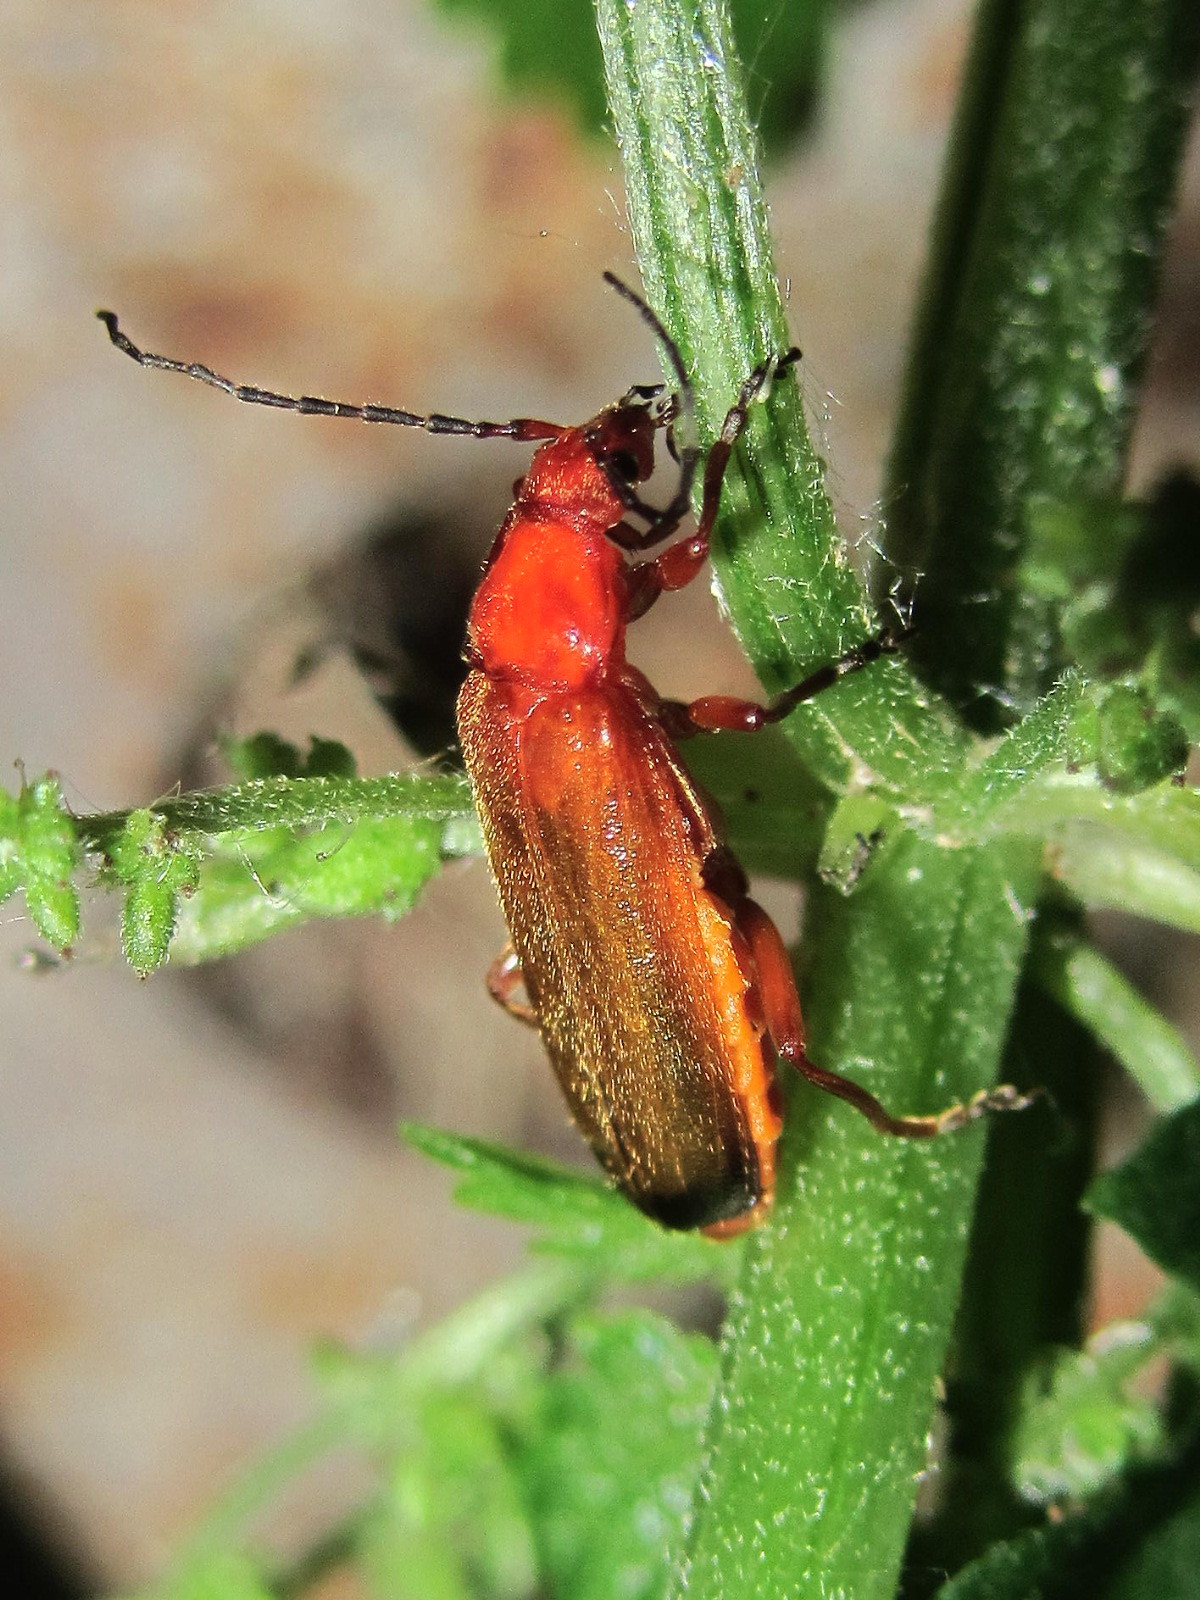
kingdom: Animalia
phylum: Arthropoda
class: Insecta
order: Coleoptera
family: Cantharidae
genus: Rhagonycha
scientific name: Rhagonycha fulva
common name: Common red soldier beetle
